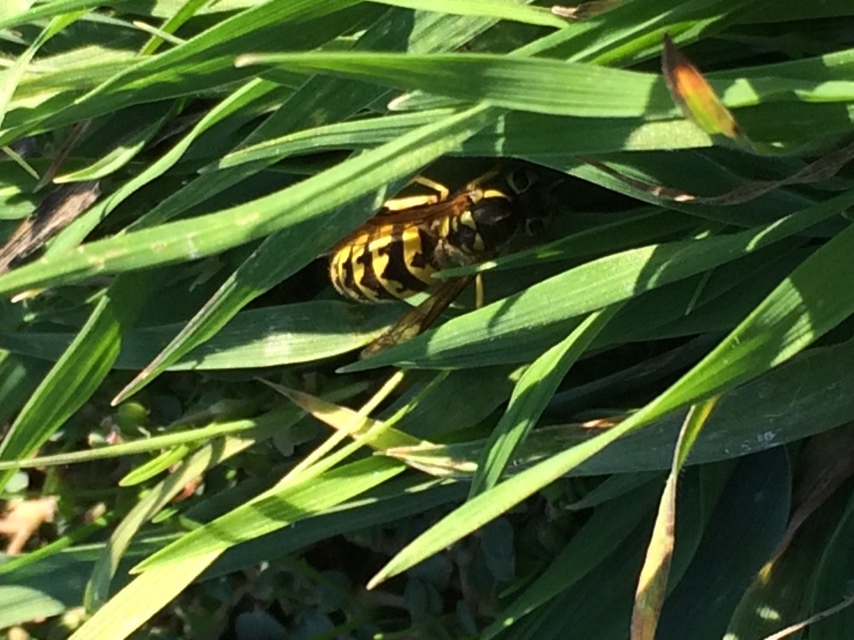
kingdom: Animalia
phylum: Arthropoda
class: Insecta
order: Hymenoptera
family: Vespidae
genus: Vespula
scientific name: Vespula pensylvanica
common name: Western yellowjacket
